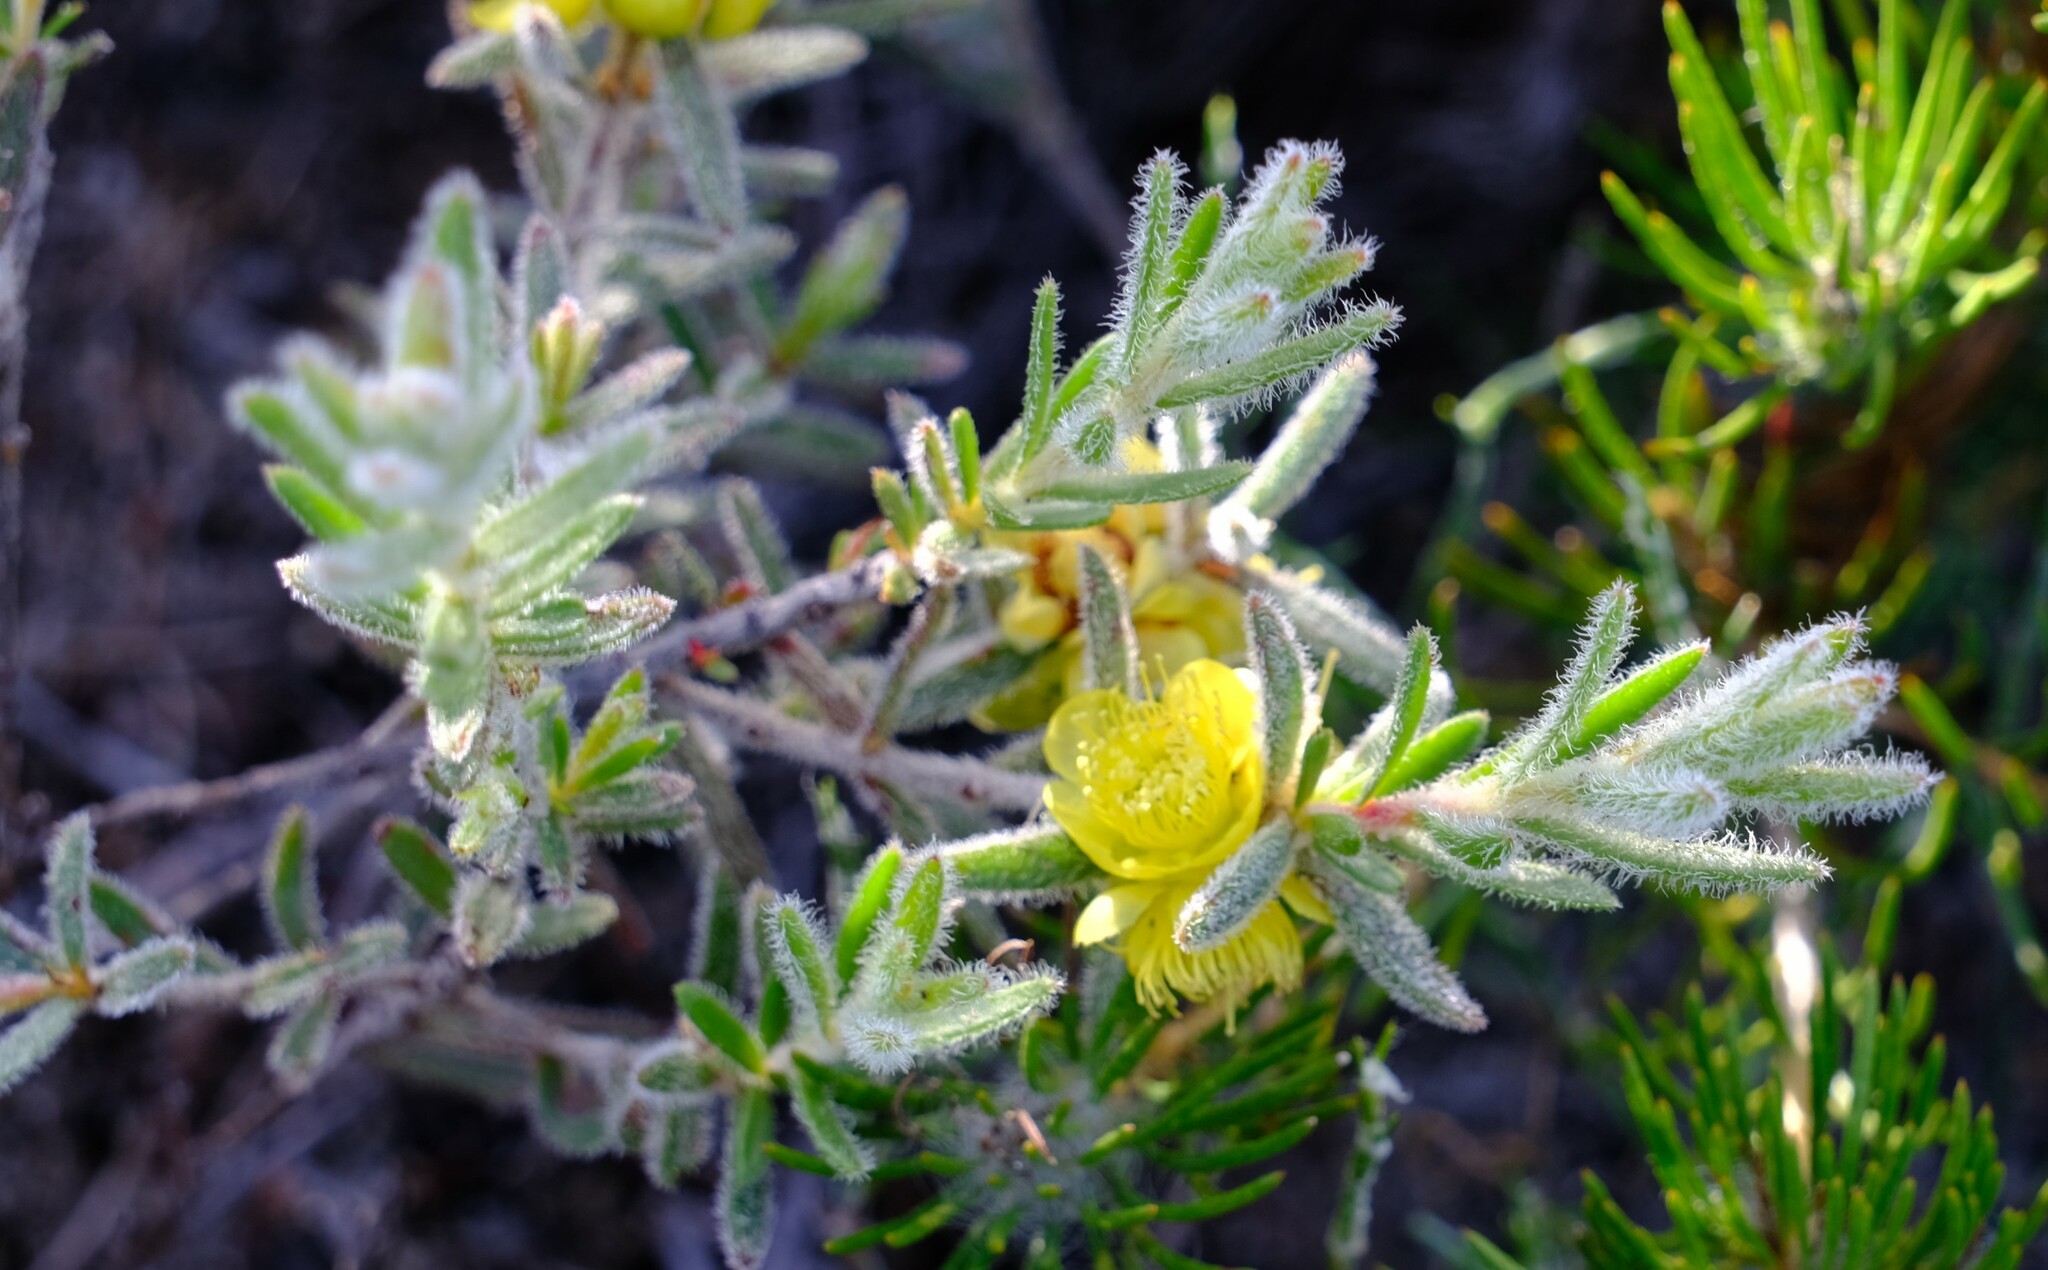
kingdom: Plantae
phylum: Tracheophyta
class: Magnoliopsida
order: Myrtales
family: Myrtaceae
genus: Hypocalymma
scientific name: Hypocalymma hirsutum
